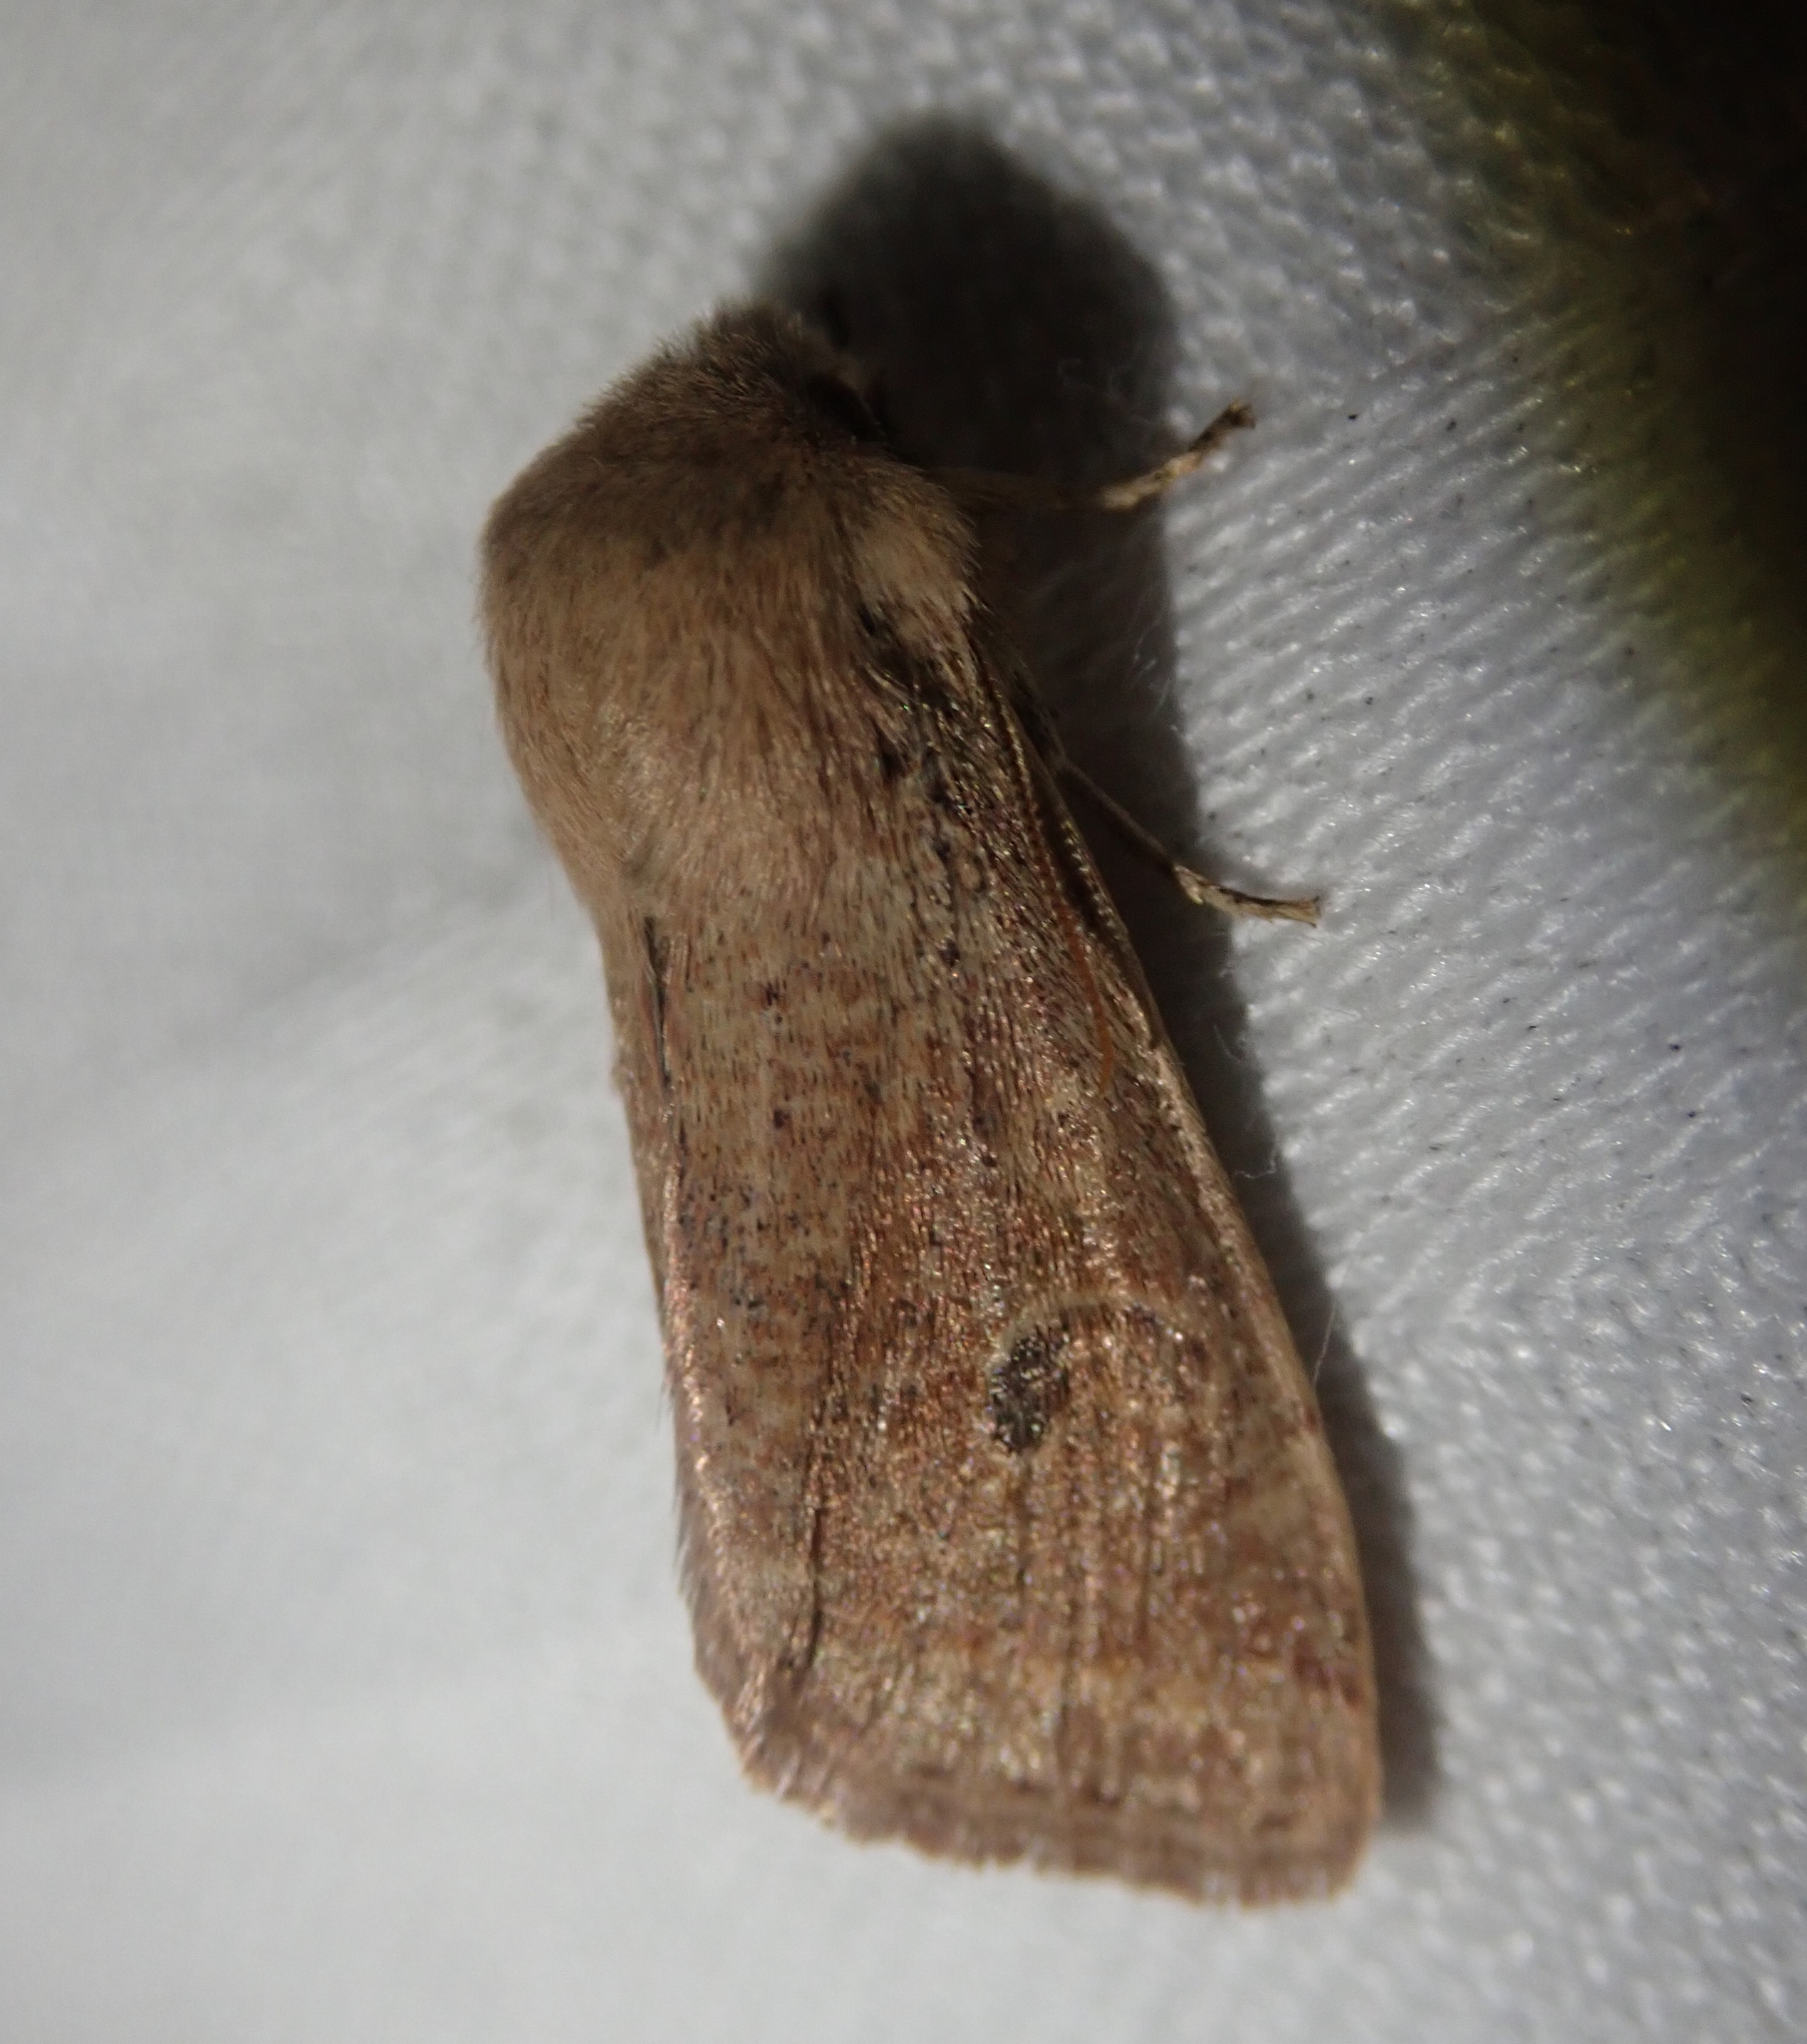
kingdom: Animalia
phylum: Arthropoda
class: Insecta
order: Lepidoptera
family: Noctuidae
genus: Orthosia
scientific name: Orthosia cruda
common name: Small quaker
